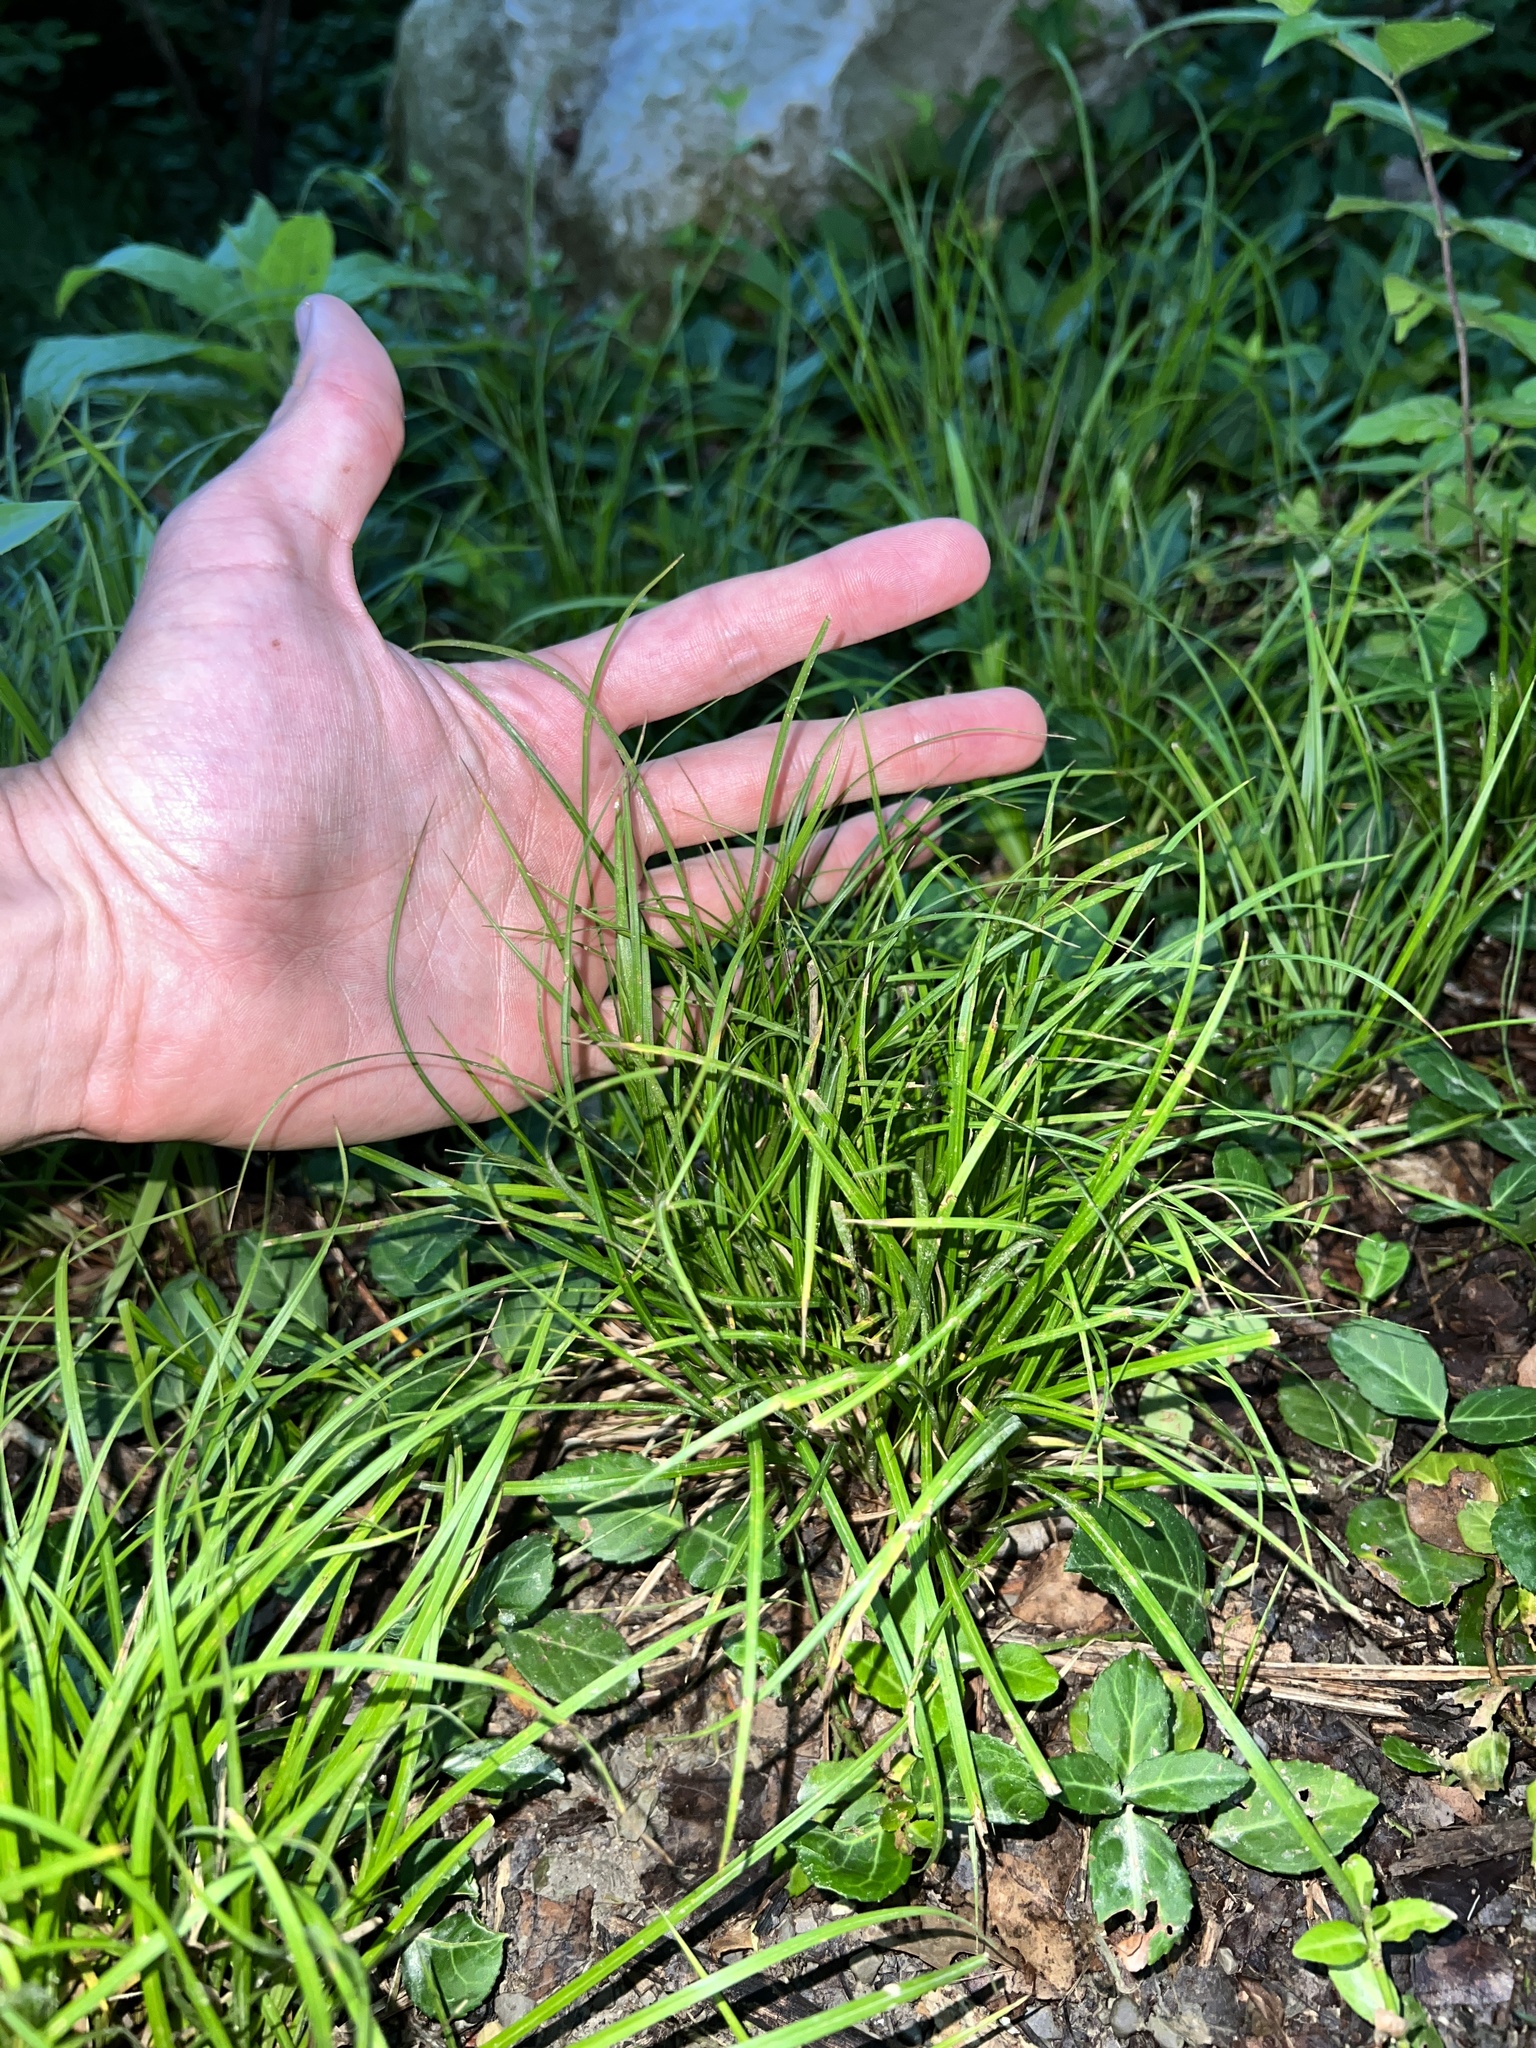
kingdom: Plantae
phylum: Tracheophyta
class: Liliopsida
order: Poales
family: Cyperaceae
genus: Carex
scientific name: Carex jamesii
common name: Grass sedge
